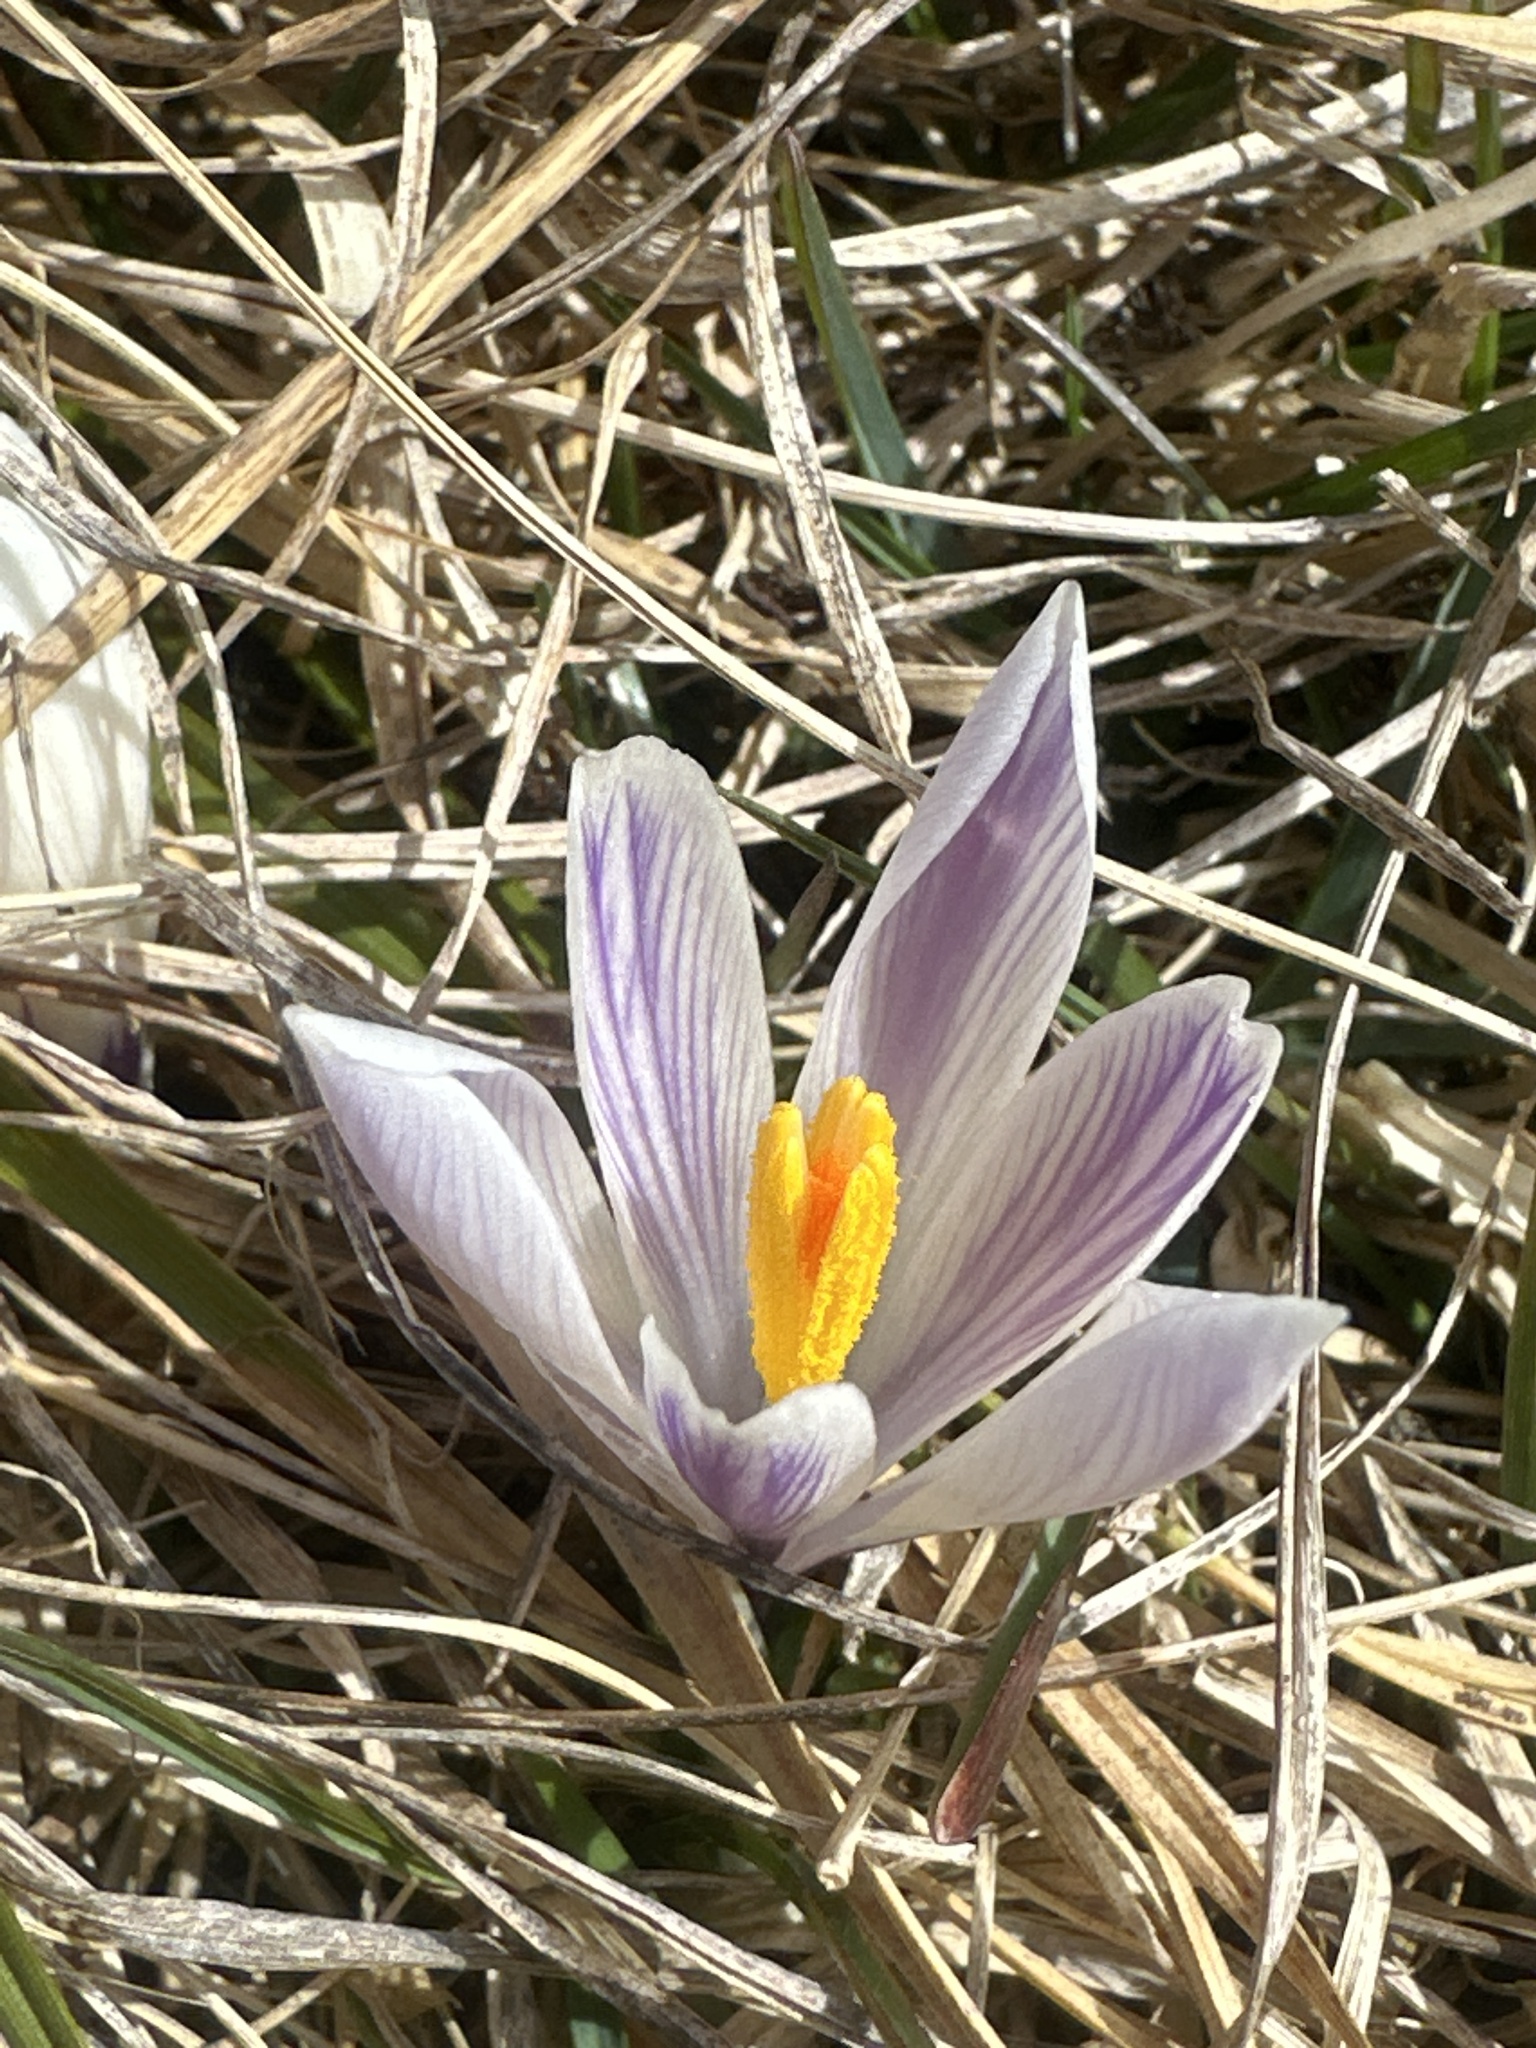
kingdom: Plantae
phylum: Tracheophyta
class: Liliopsida
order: Asparagales
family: Iridaceae
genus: Crocus
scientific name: Crocus vernus
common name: Spring crocus
